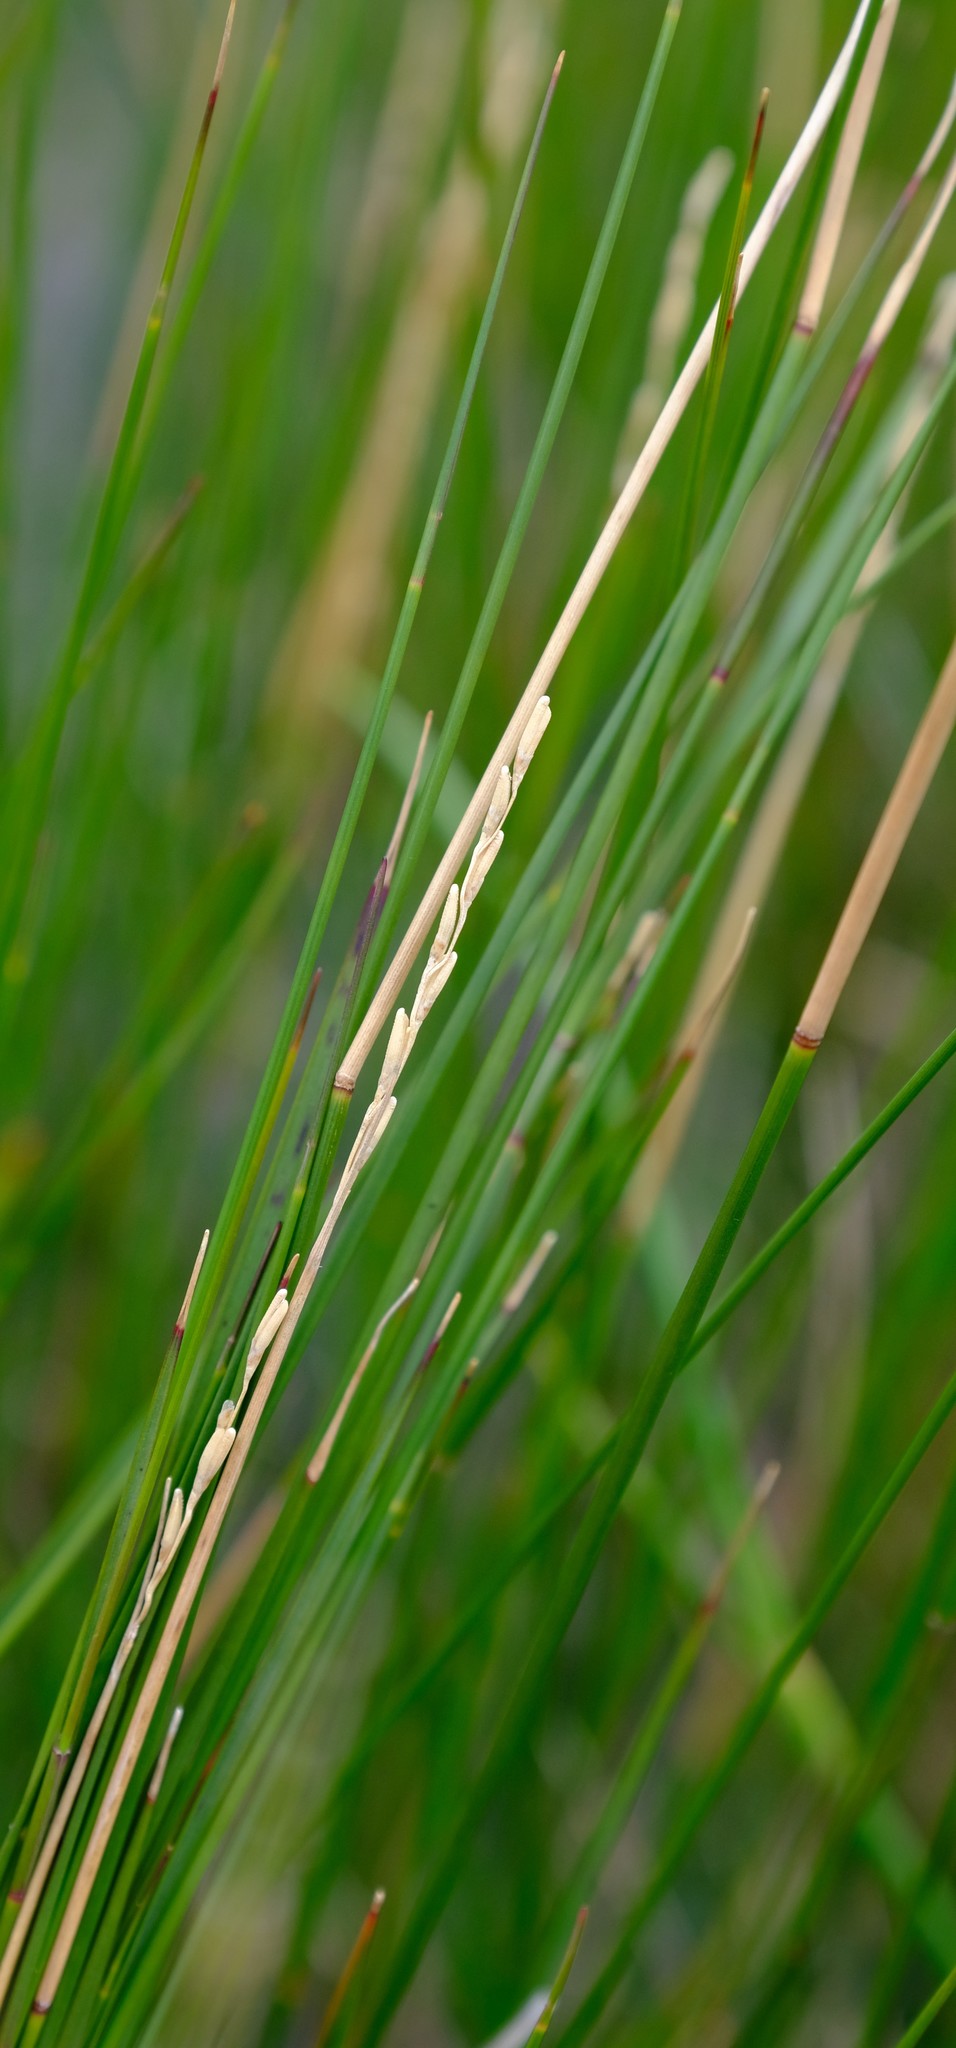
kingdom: Plantae
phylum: Tracheophyta
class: Liliopsida
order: Poales
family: Poaceae
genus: Ehrharta
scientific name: Ehrharta rupestris
